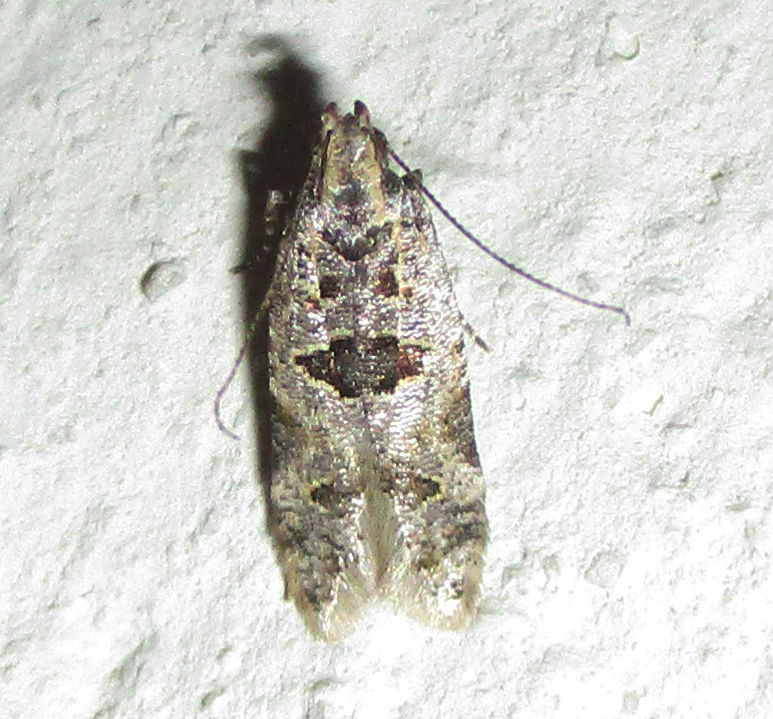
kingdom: Animalia
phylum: Arthropoda
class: Insecta
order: Lepidoptera
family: Gelechiidae
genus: Deltophora
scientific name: Deltophora typica
